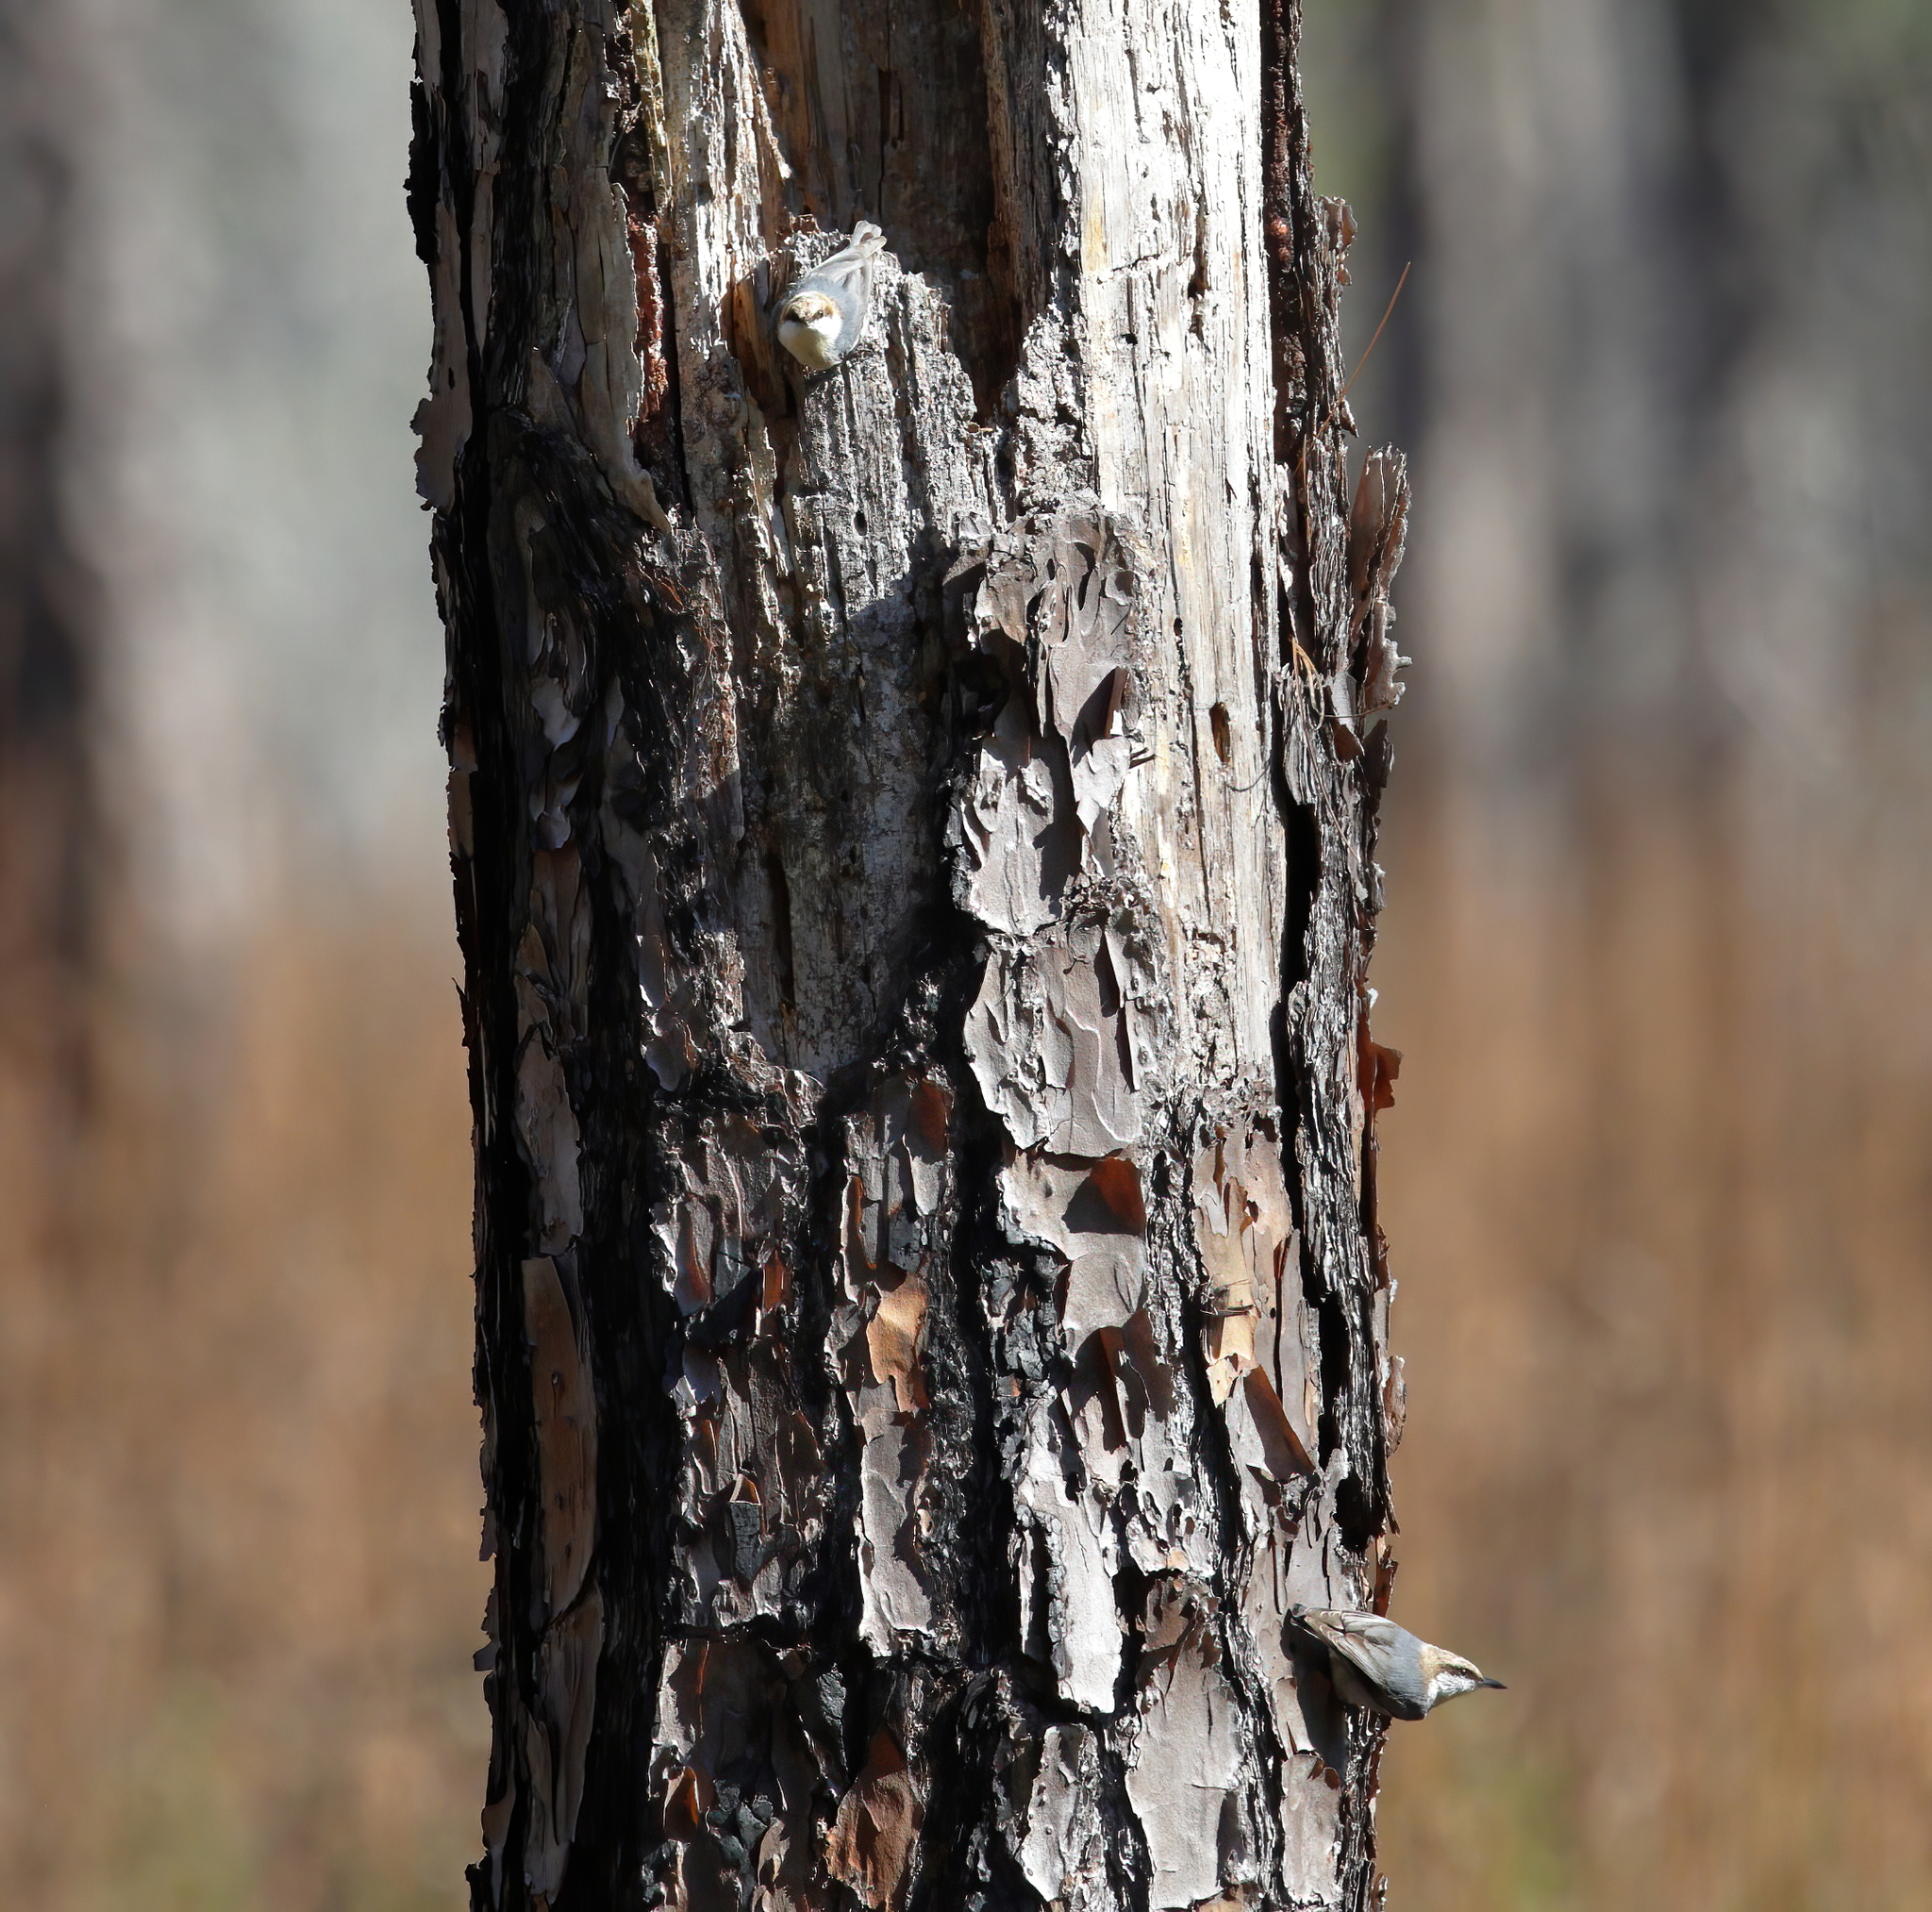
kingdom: Animalia
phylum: Chordata
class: Aves
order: Passeriformes
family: Sittidae
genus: Sitta
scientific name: Sitta pusilla
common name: Brown-headed nuthatch
